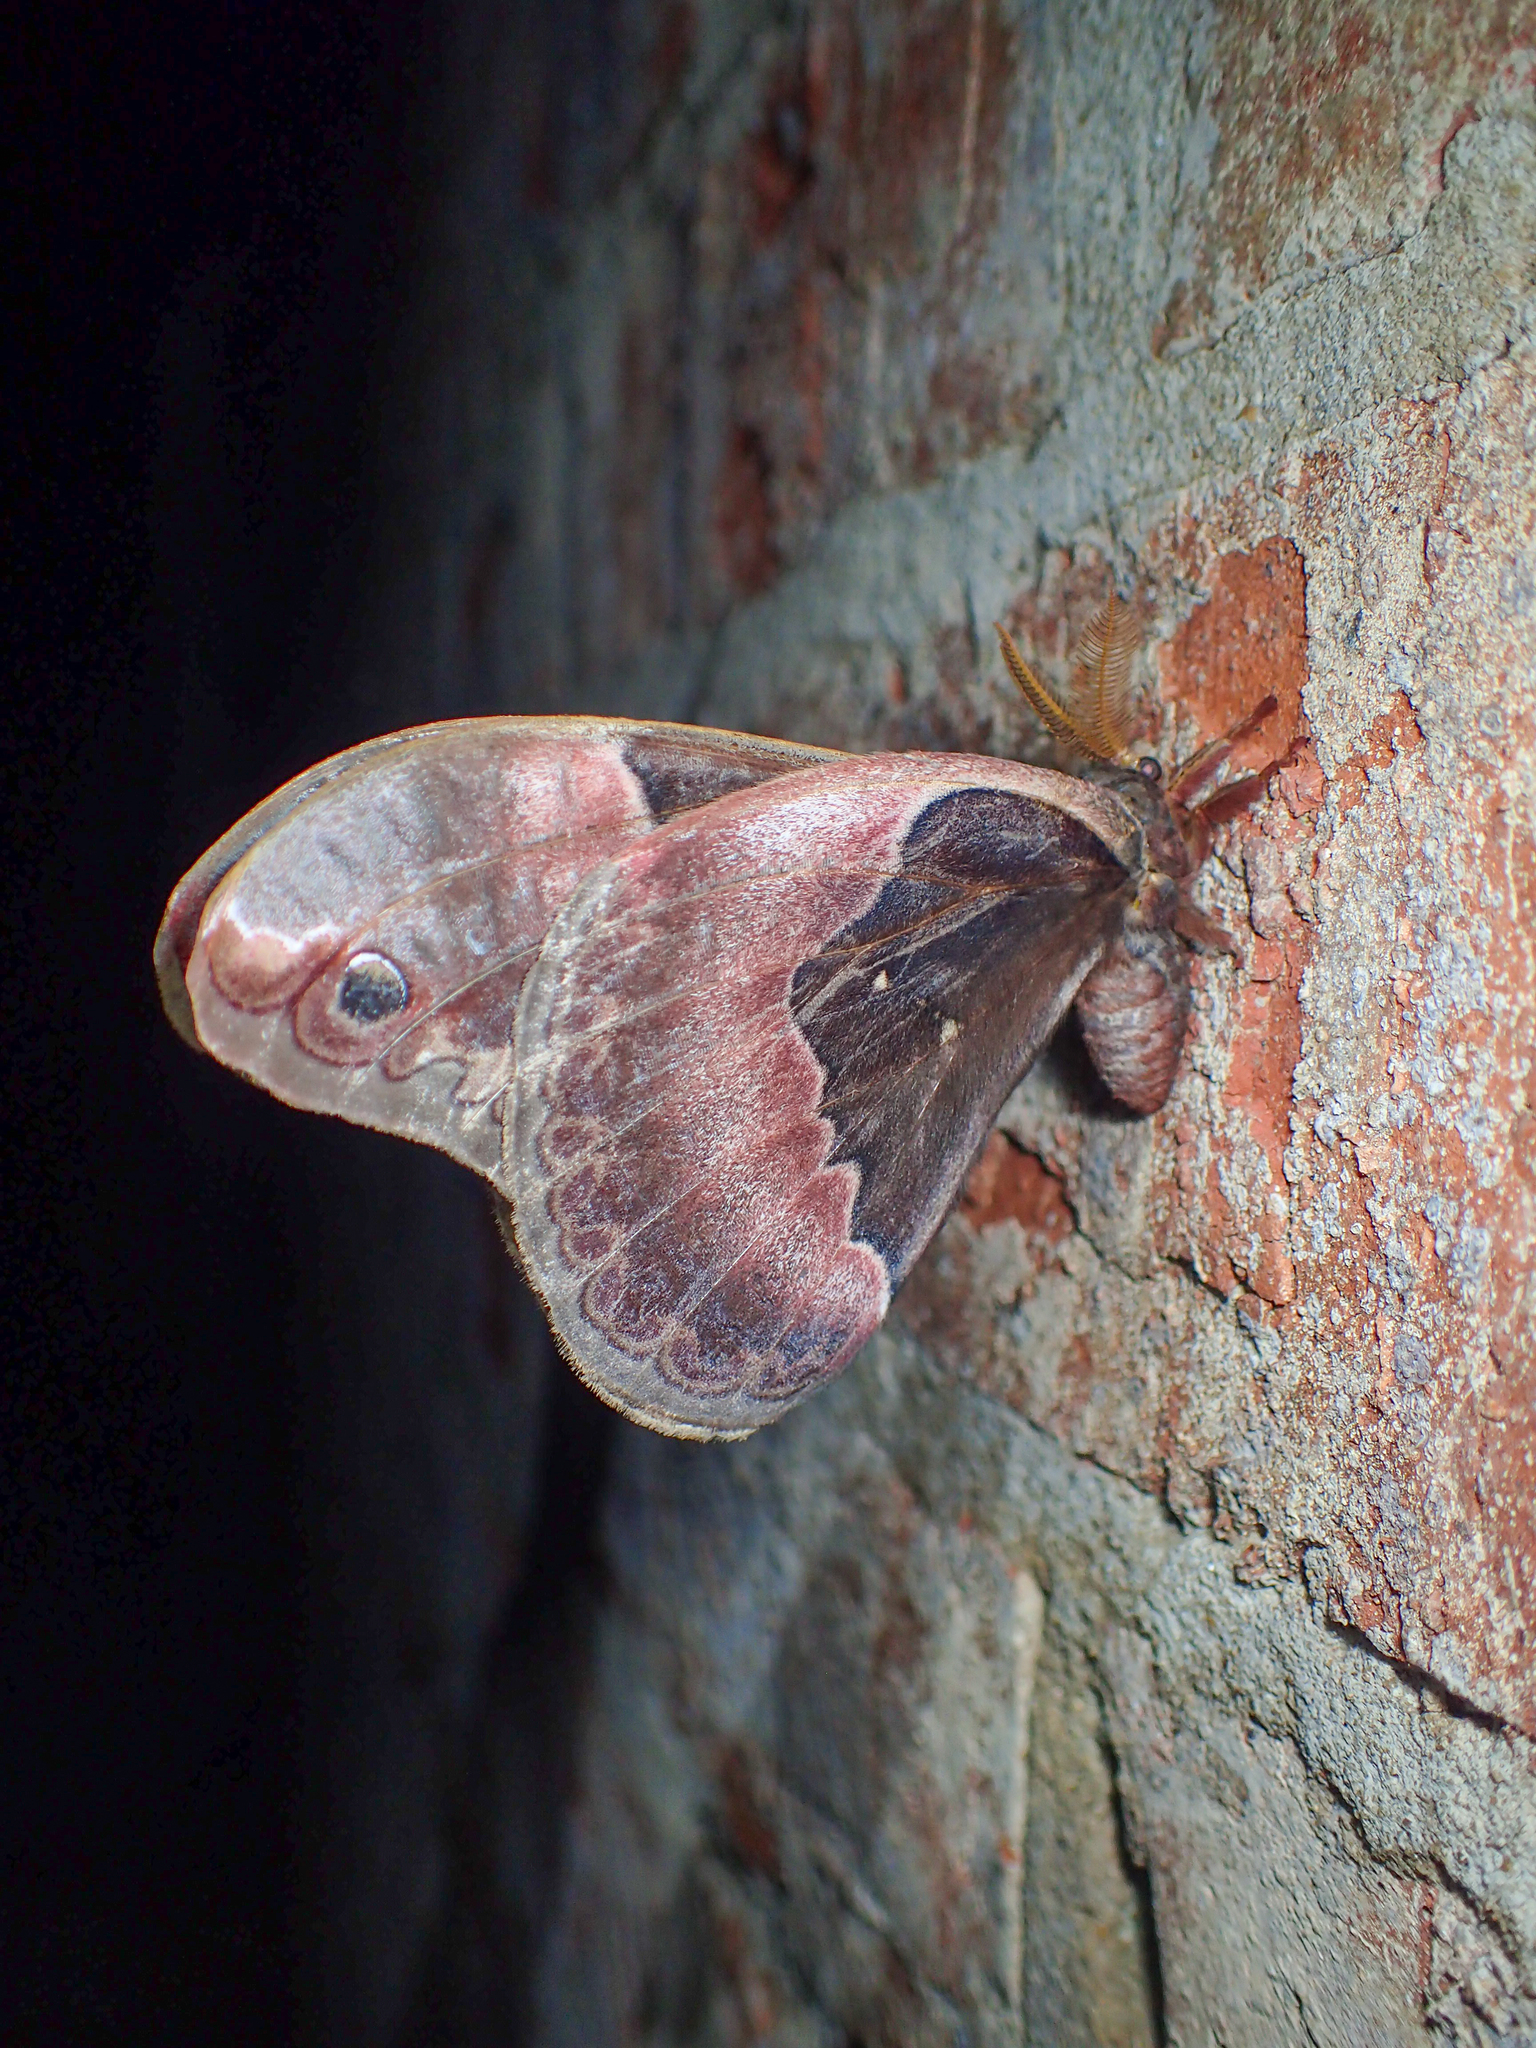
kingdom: Animalia
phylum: Arthropoda
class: Insecta
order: Lepidoptera
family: Saturniidae
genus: Callosamia
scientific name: Callosamia angulifera
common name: Tulip tree silkmoth
